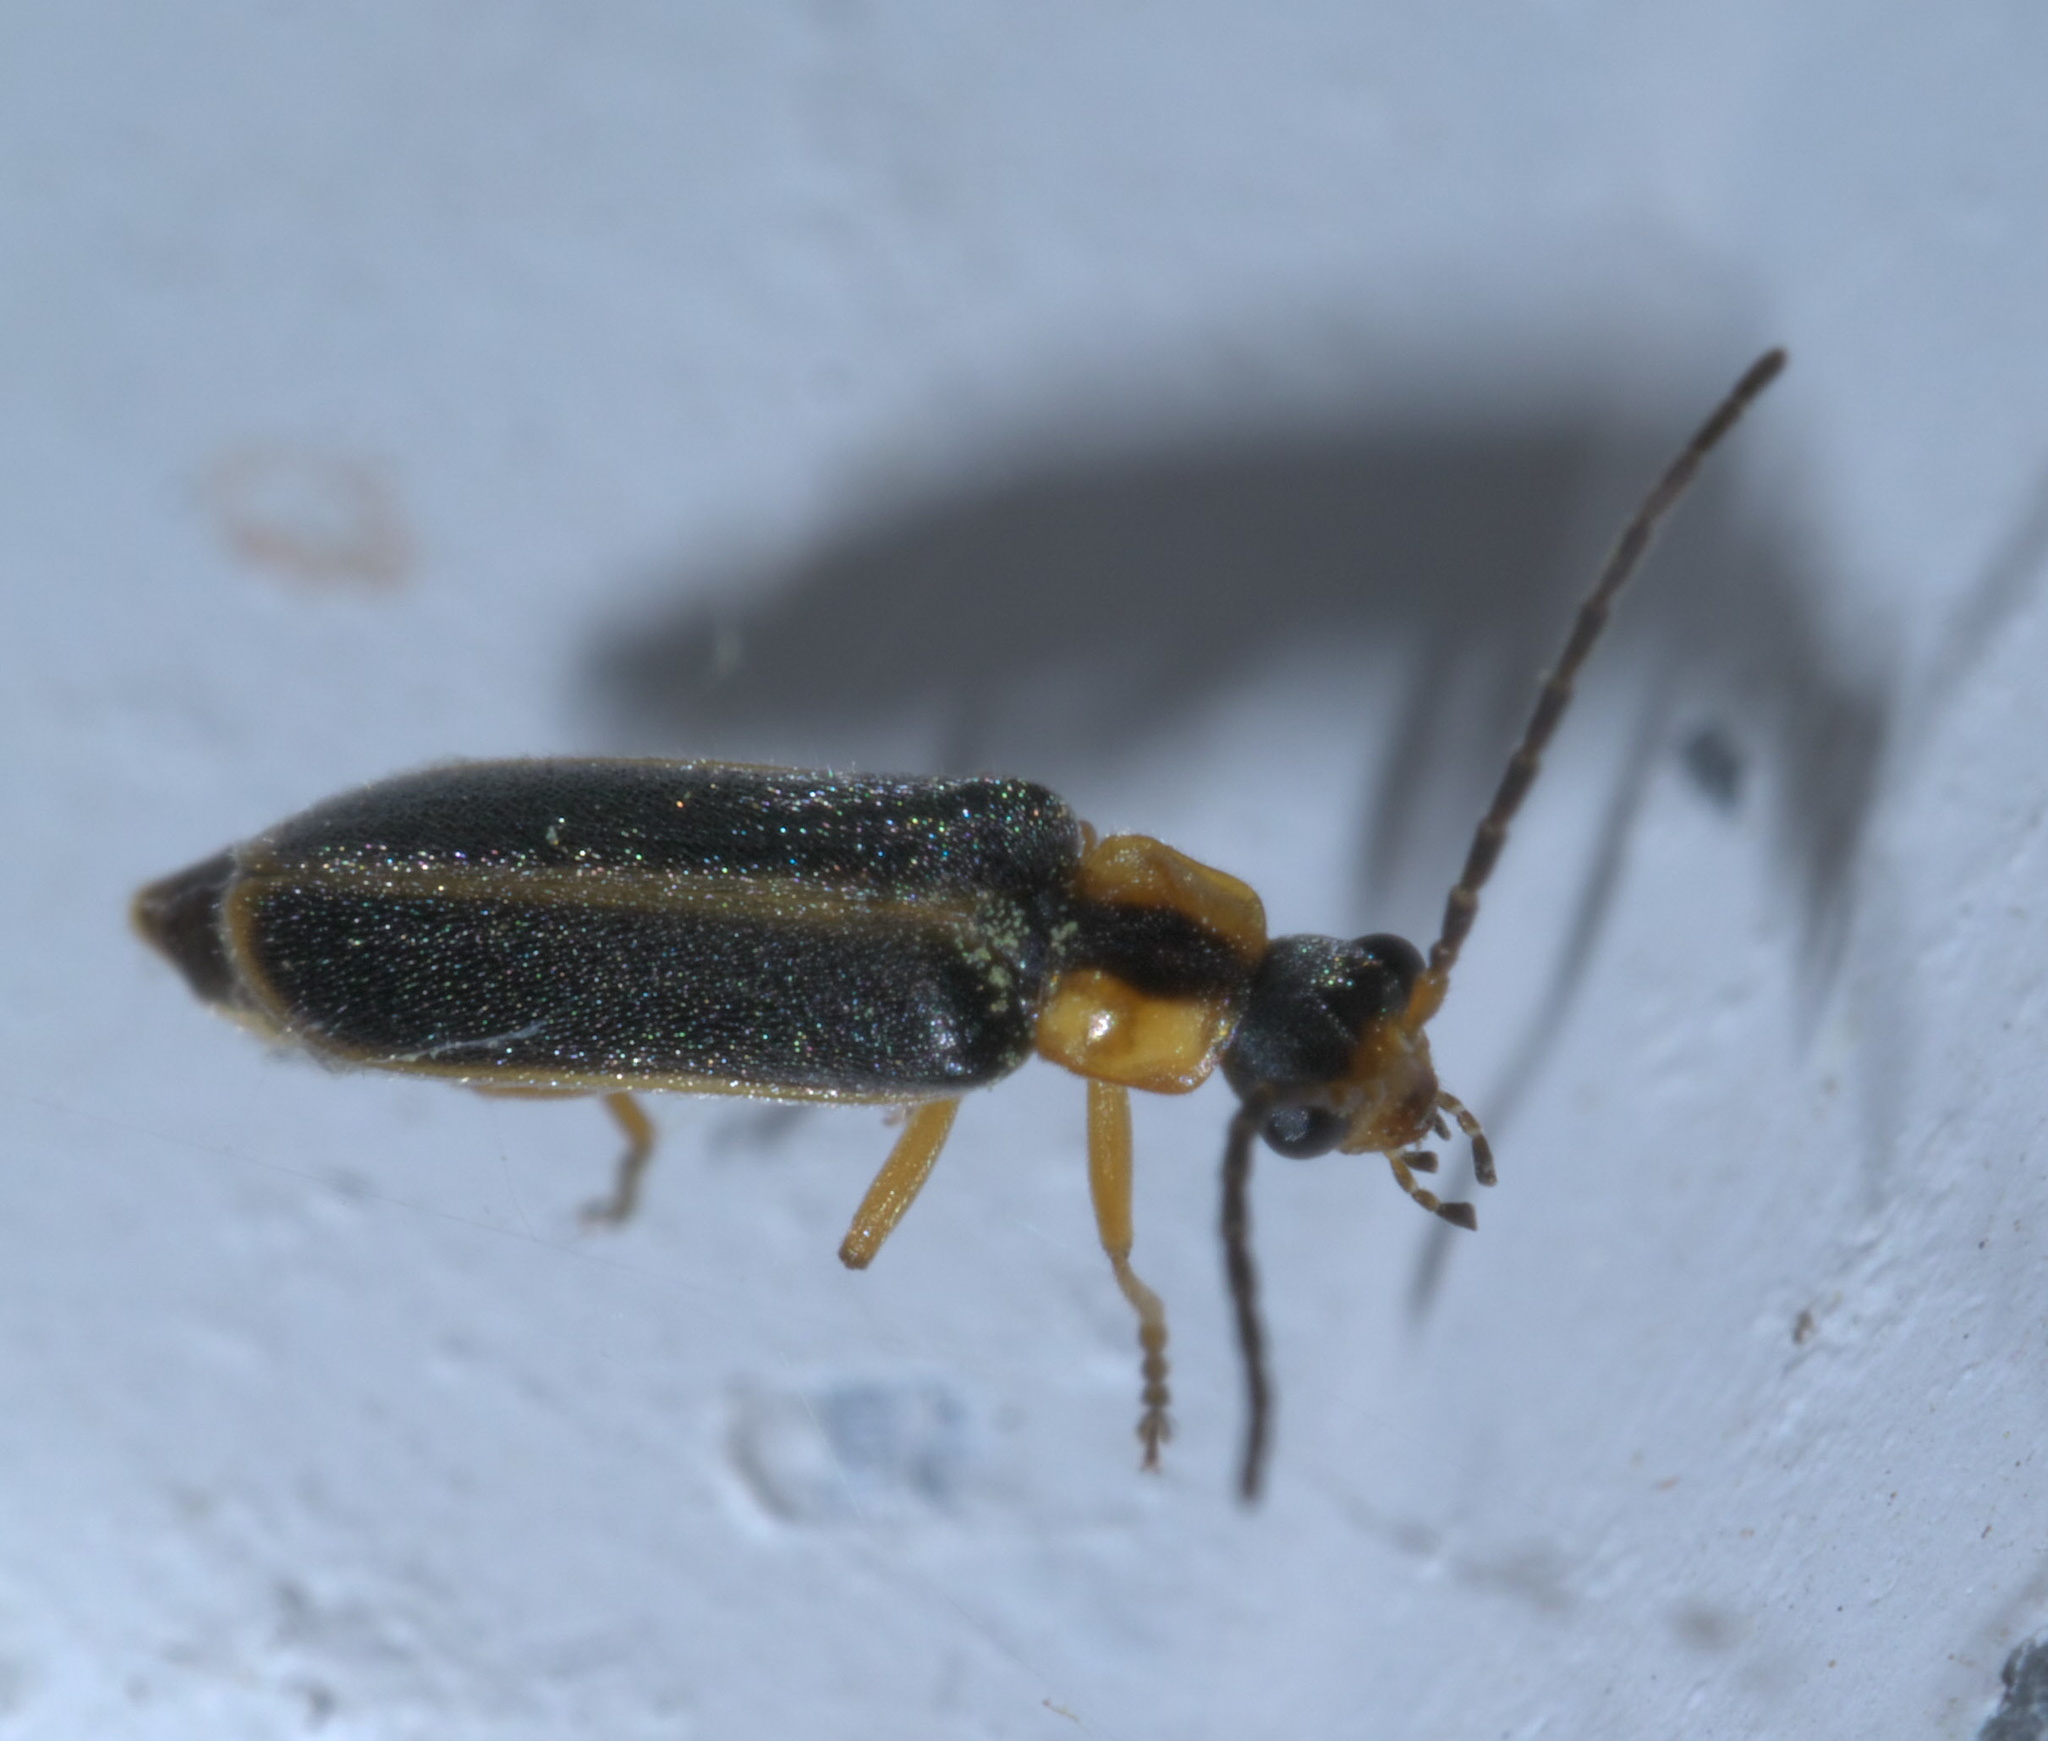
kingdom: Animalia
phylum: Arthropoda
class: Insecta
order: Coleoptera
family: Cantharidae
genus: Rhagonycha
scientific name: Rhagonycha scitula
